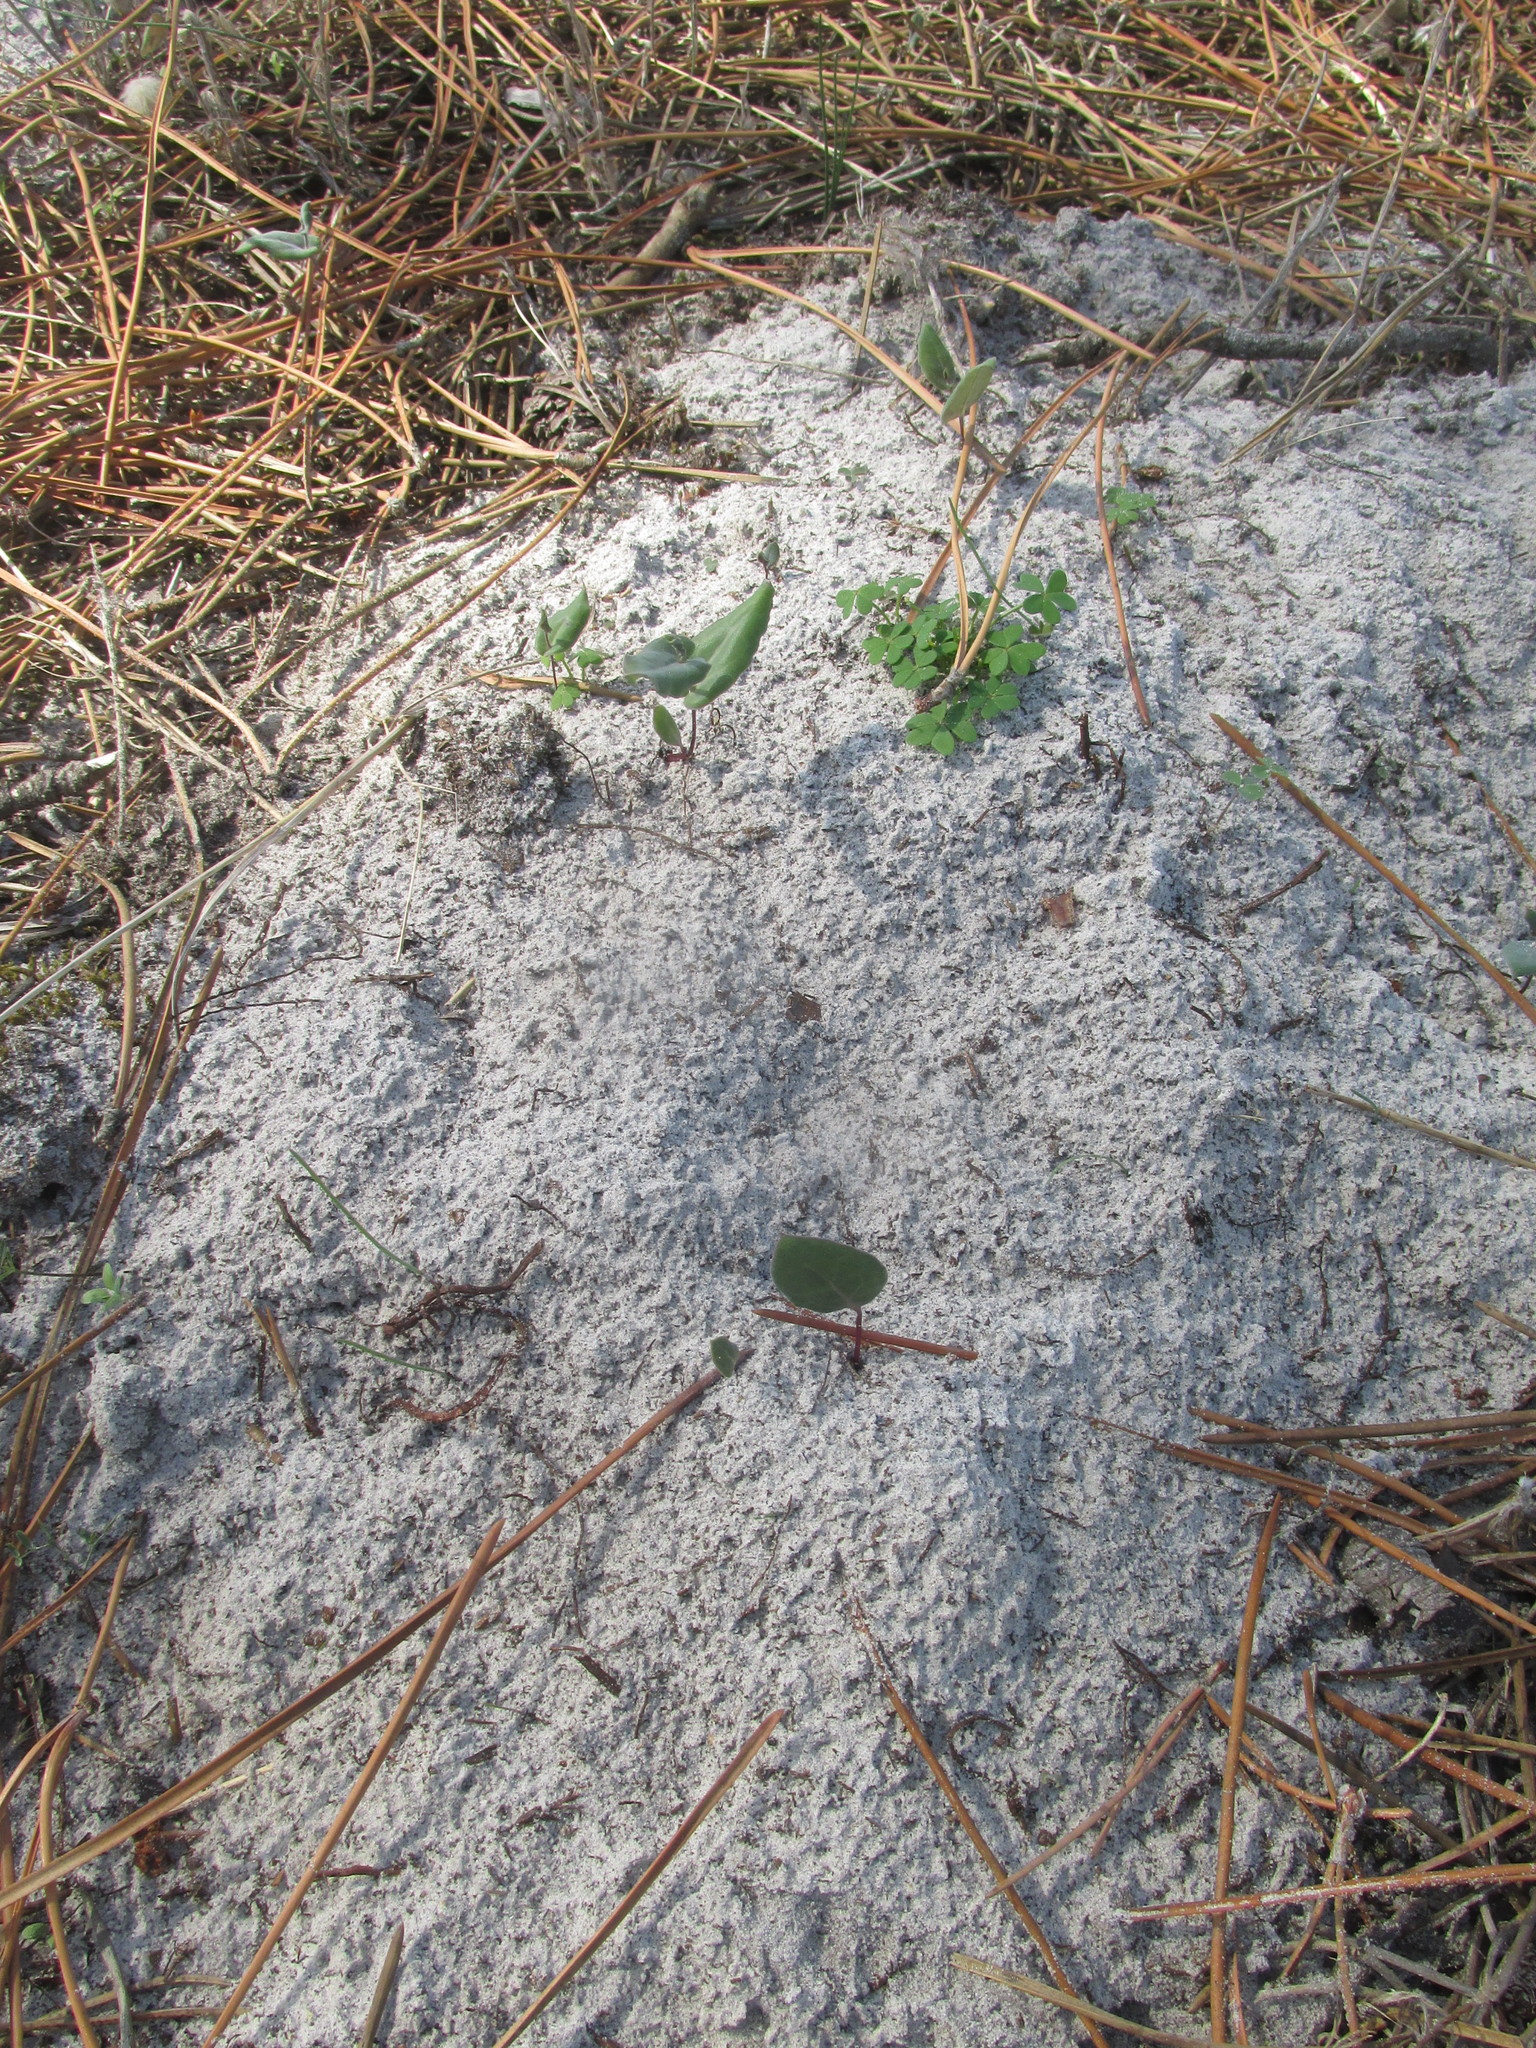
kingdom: Plantae
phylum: Tracheophyta
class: Magnoliopsida
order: Asterales
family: Asteraceae
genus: Othonna
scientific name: Othonna undulosa
